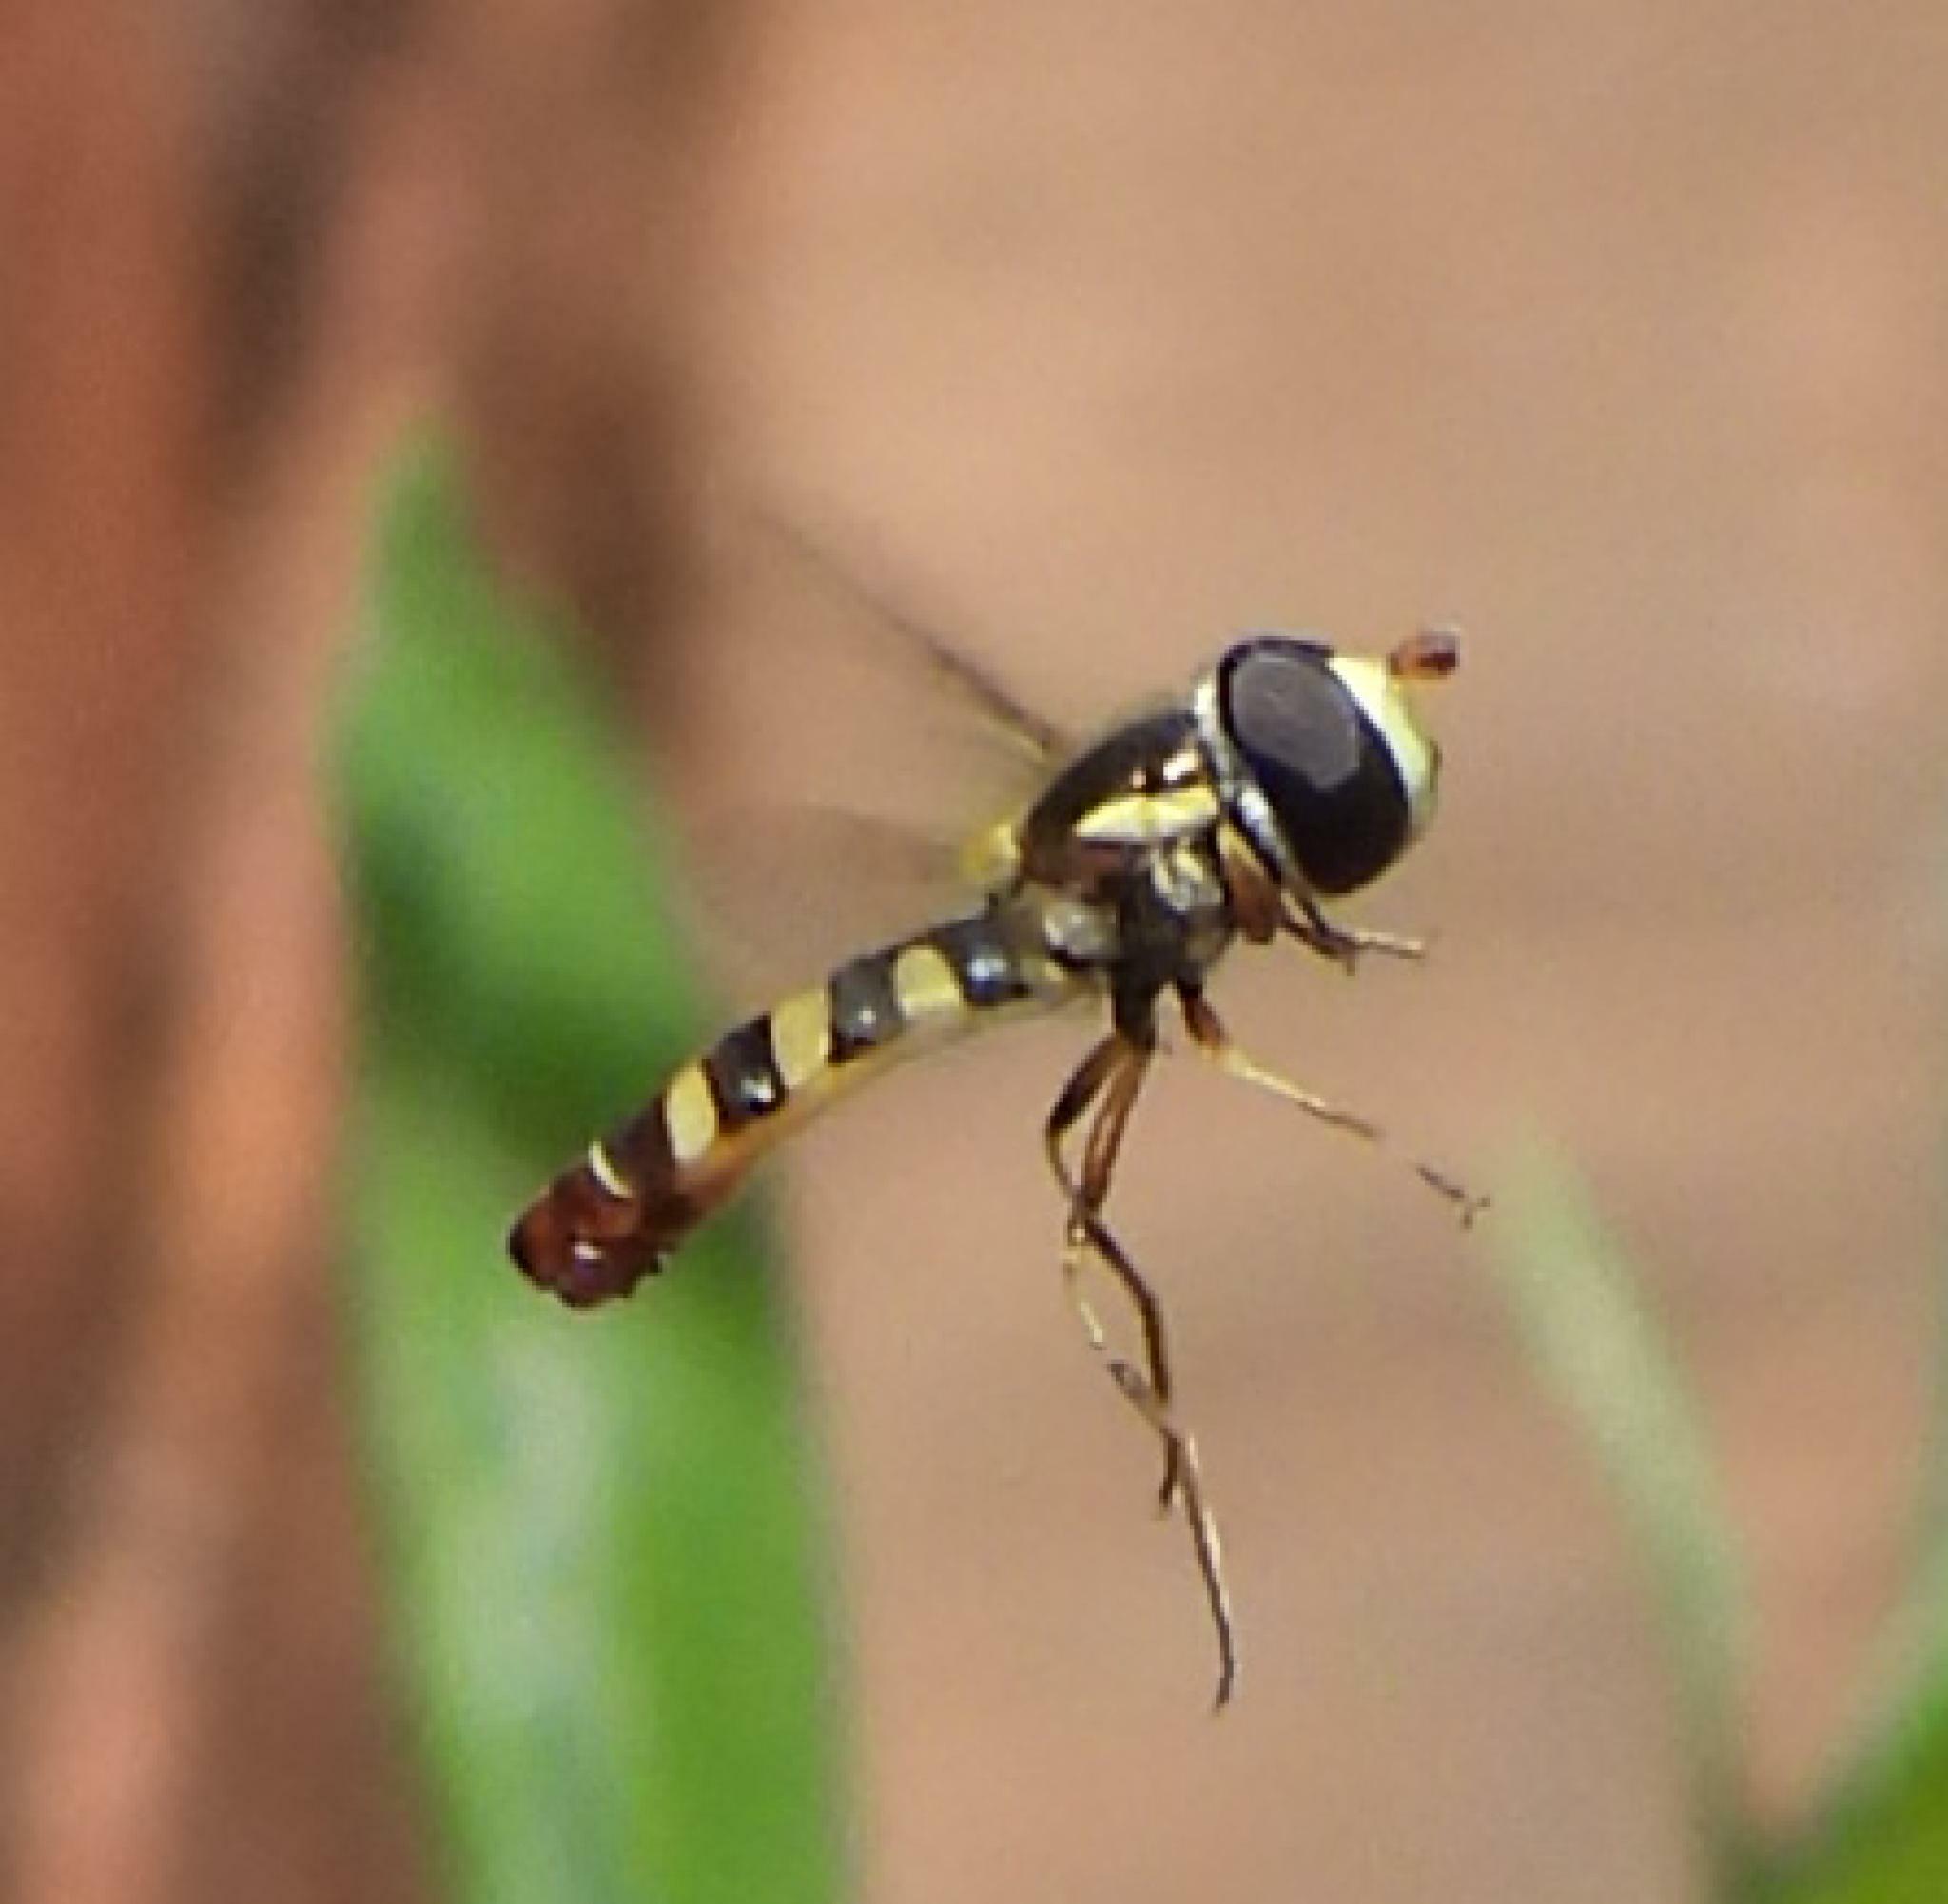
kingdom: Animalia
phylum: Arthropoda
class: Insecta
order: Diptera
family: Syrphidae
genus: Ischiodon
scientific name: Ischiodon aegyptius
